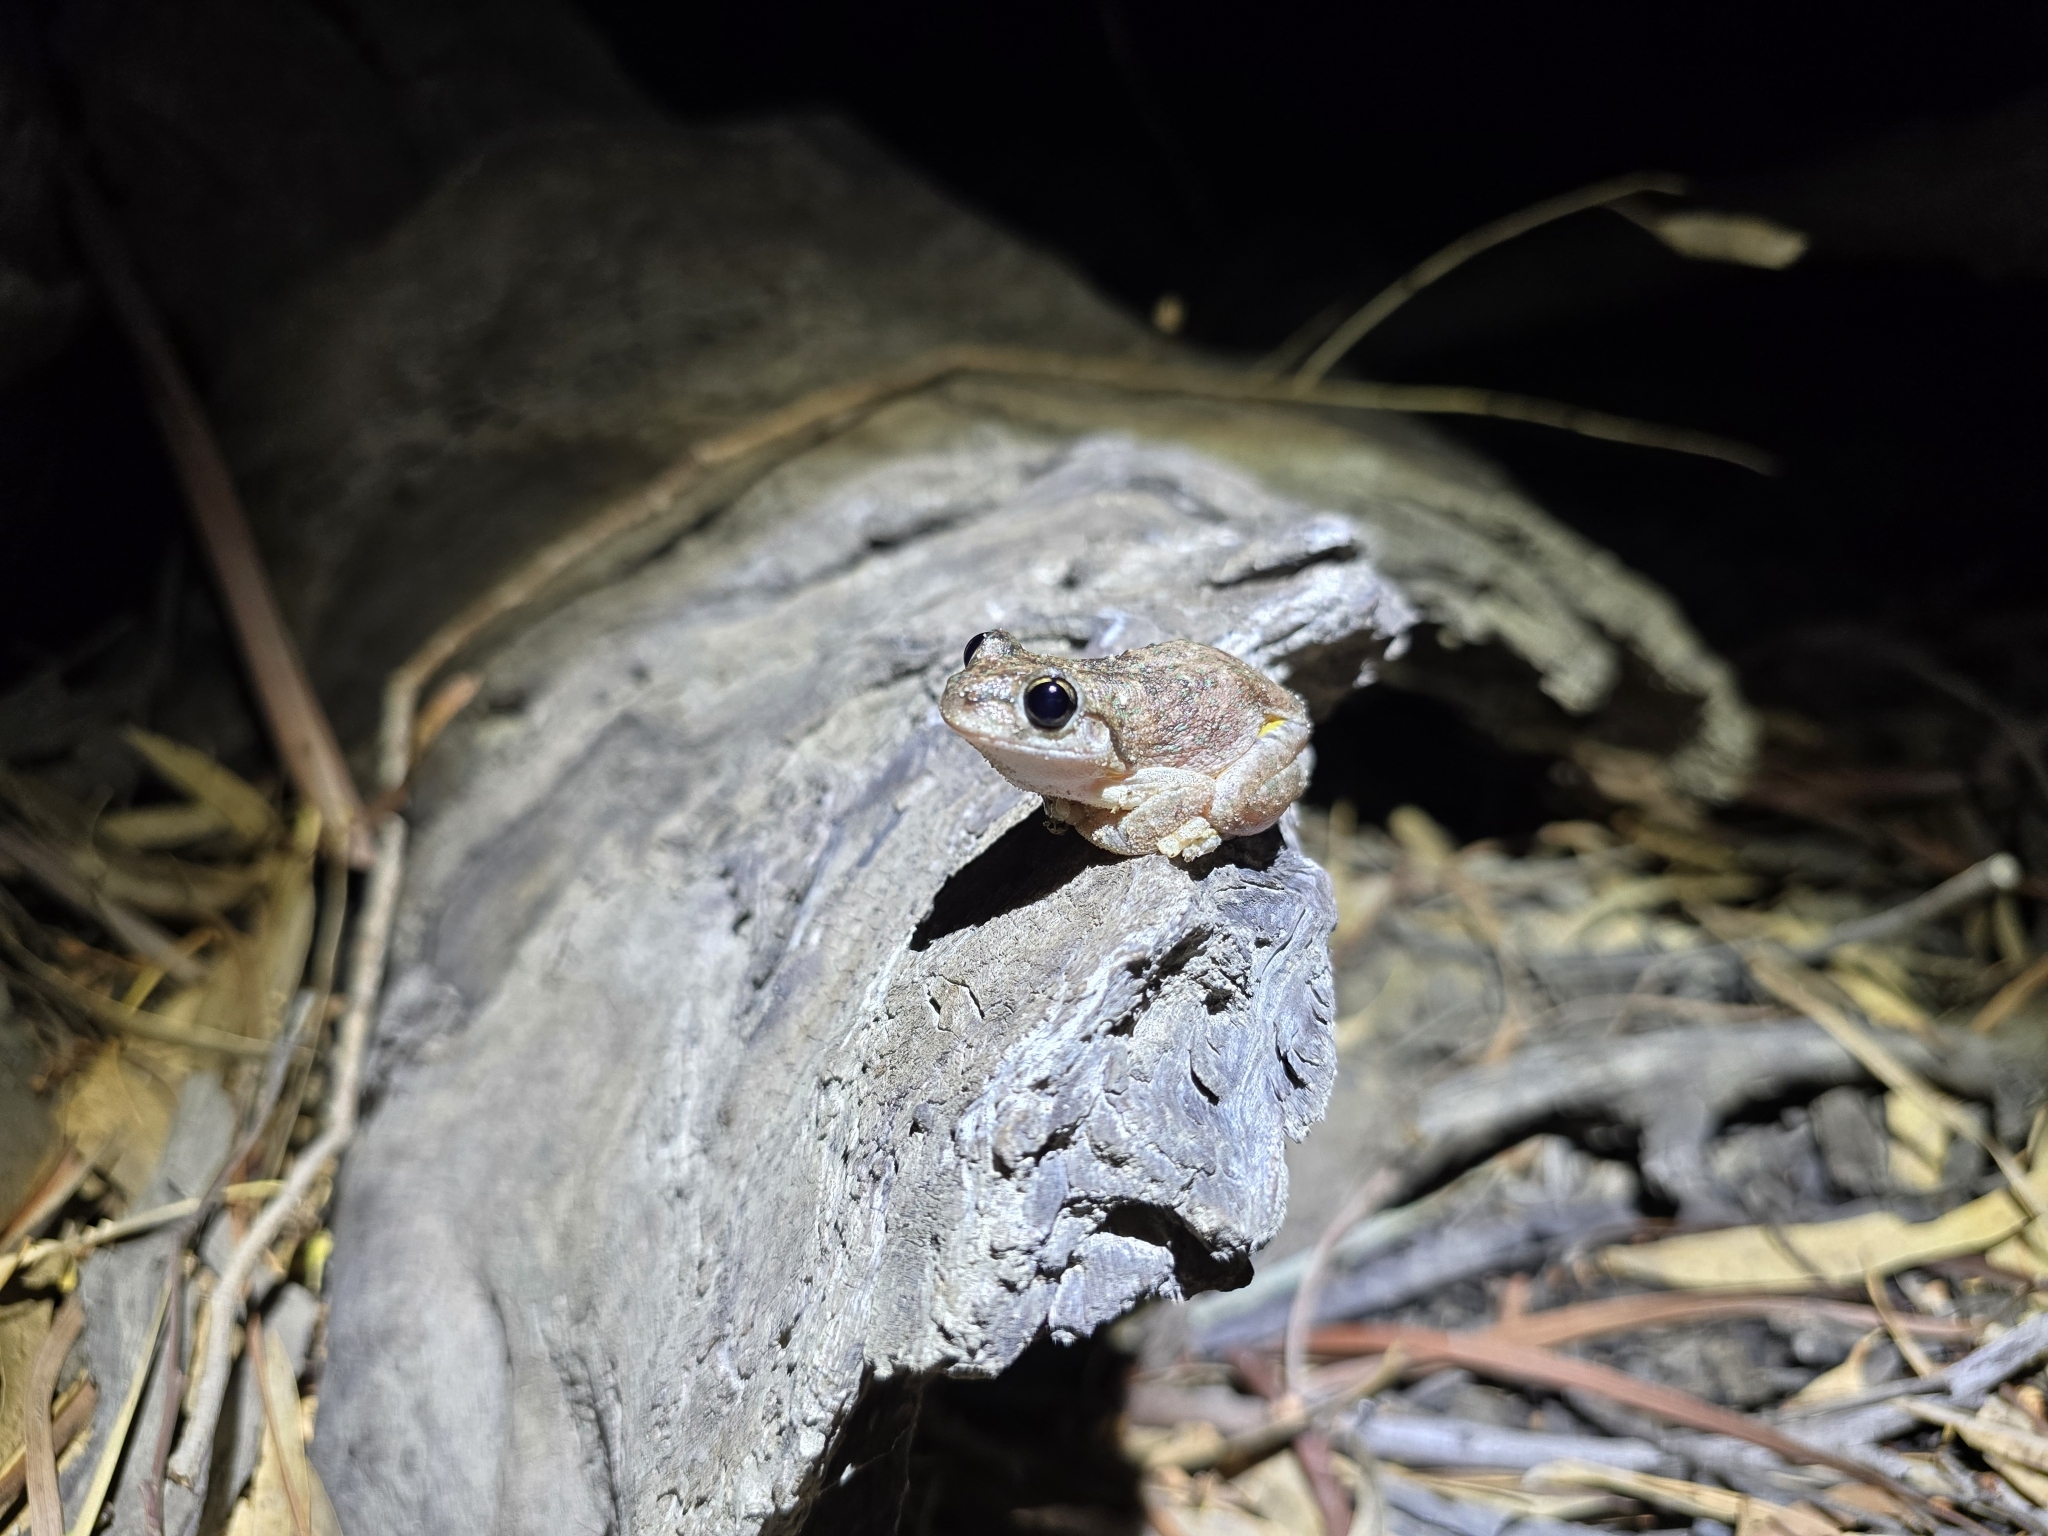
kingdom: Animalia
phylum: Chordata
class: Amphibia
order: Anura
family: Pelodryadidae
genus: Litoria
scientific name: Litoria peronii
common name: Emerald spotted treefrog
